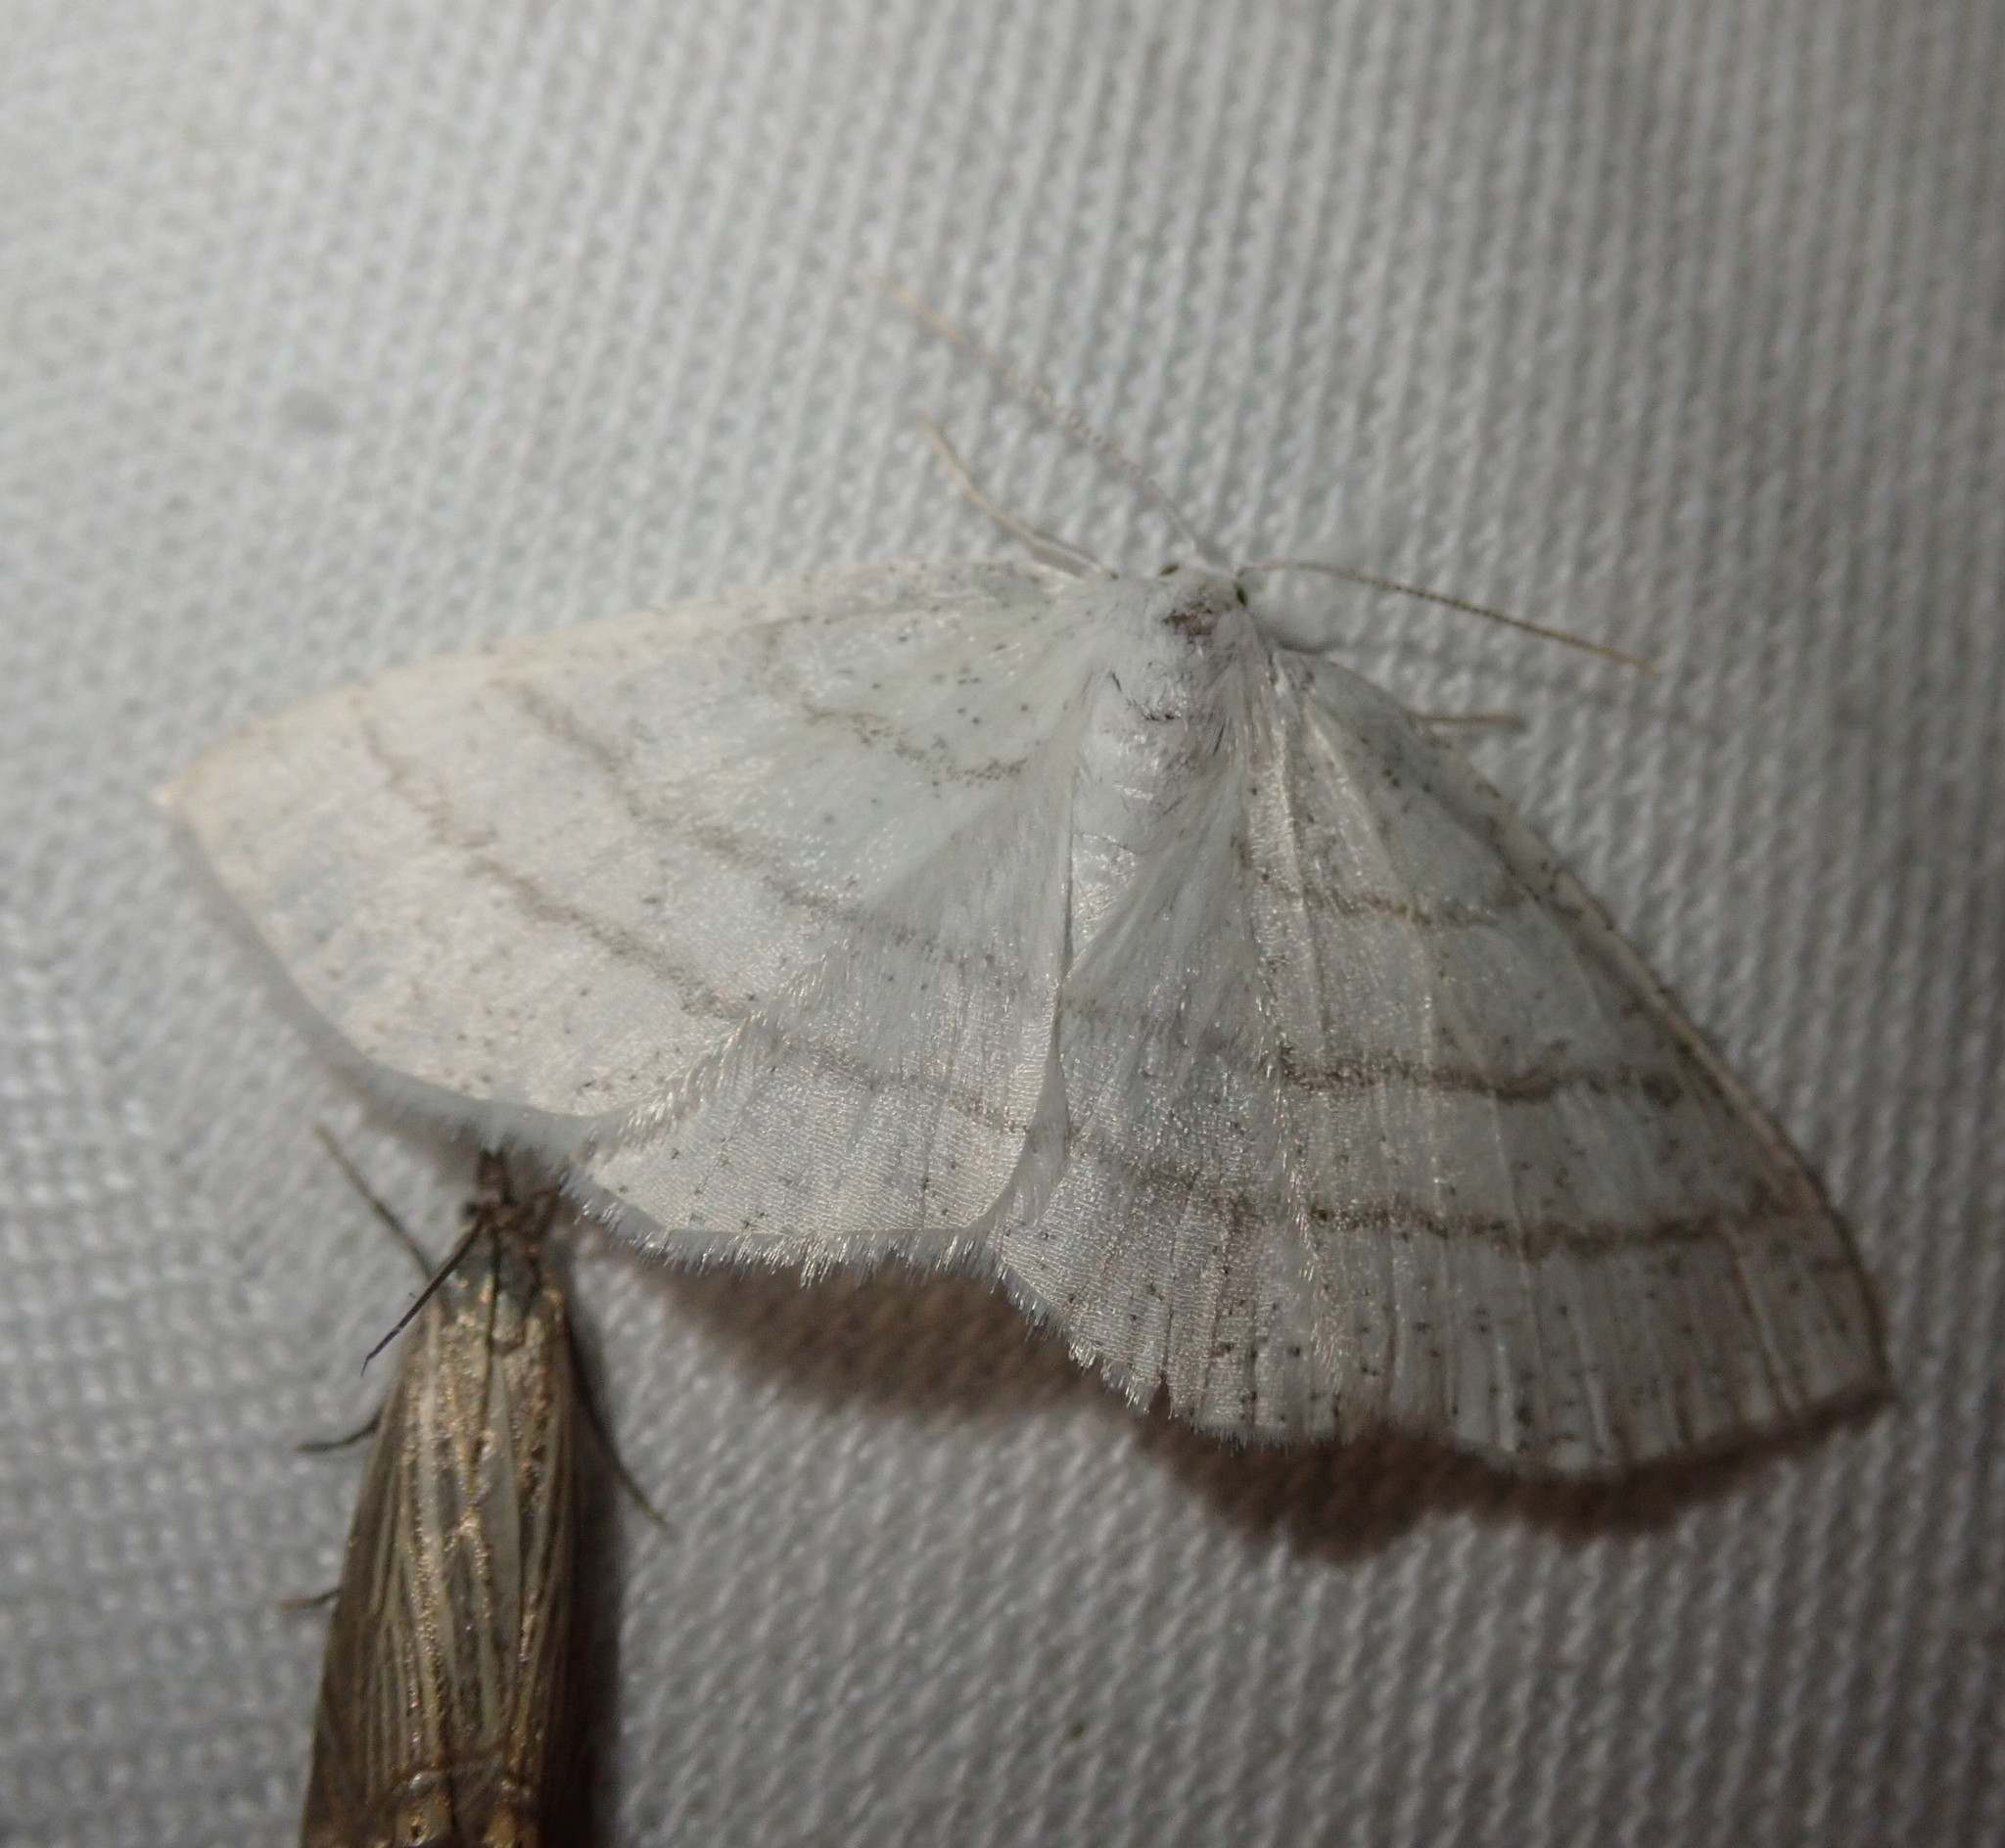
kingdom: Animalia
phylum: Arthropoda
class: Insecta
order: Lepidoptera
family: Geometridae
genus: Cabera
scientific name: Cabera pusaria
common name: Common white wave
